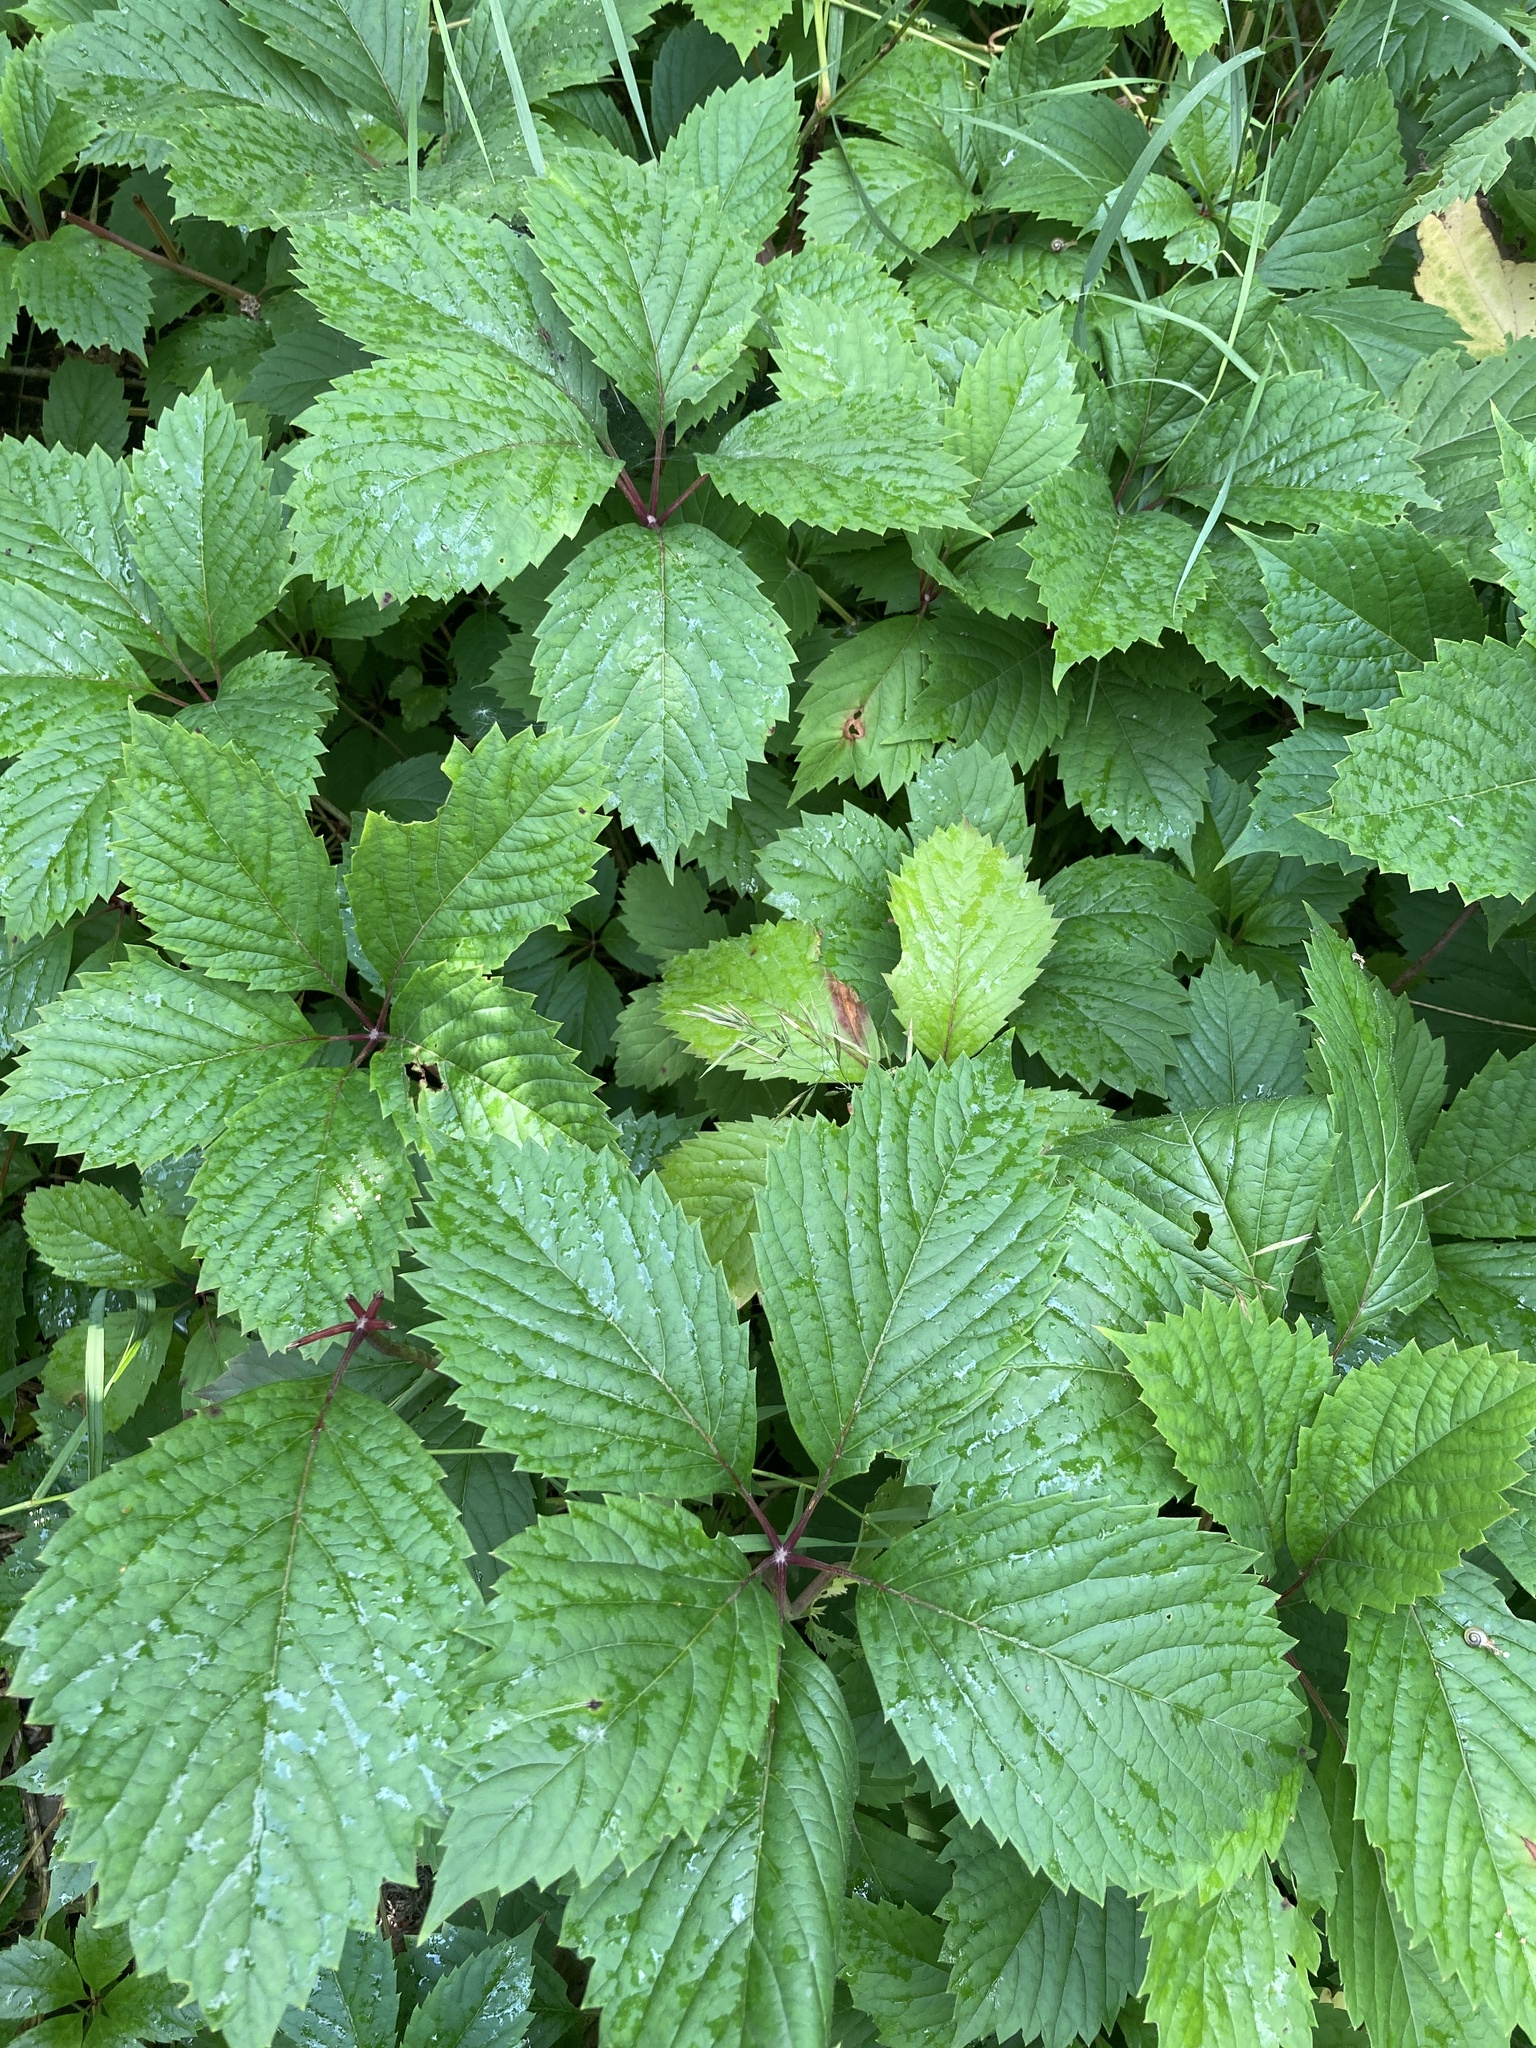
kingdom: Plantae
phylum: Tracheophyta
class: Magnoliopsida
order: Vitales
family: Vitaceae
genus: Parthenocissus
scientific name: Parthenocissus inserta
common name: False virginia-creeper
